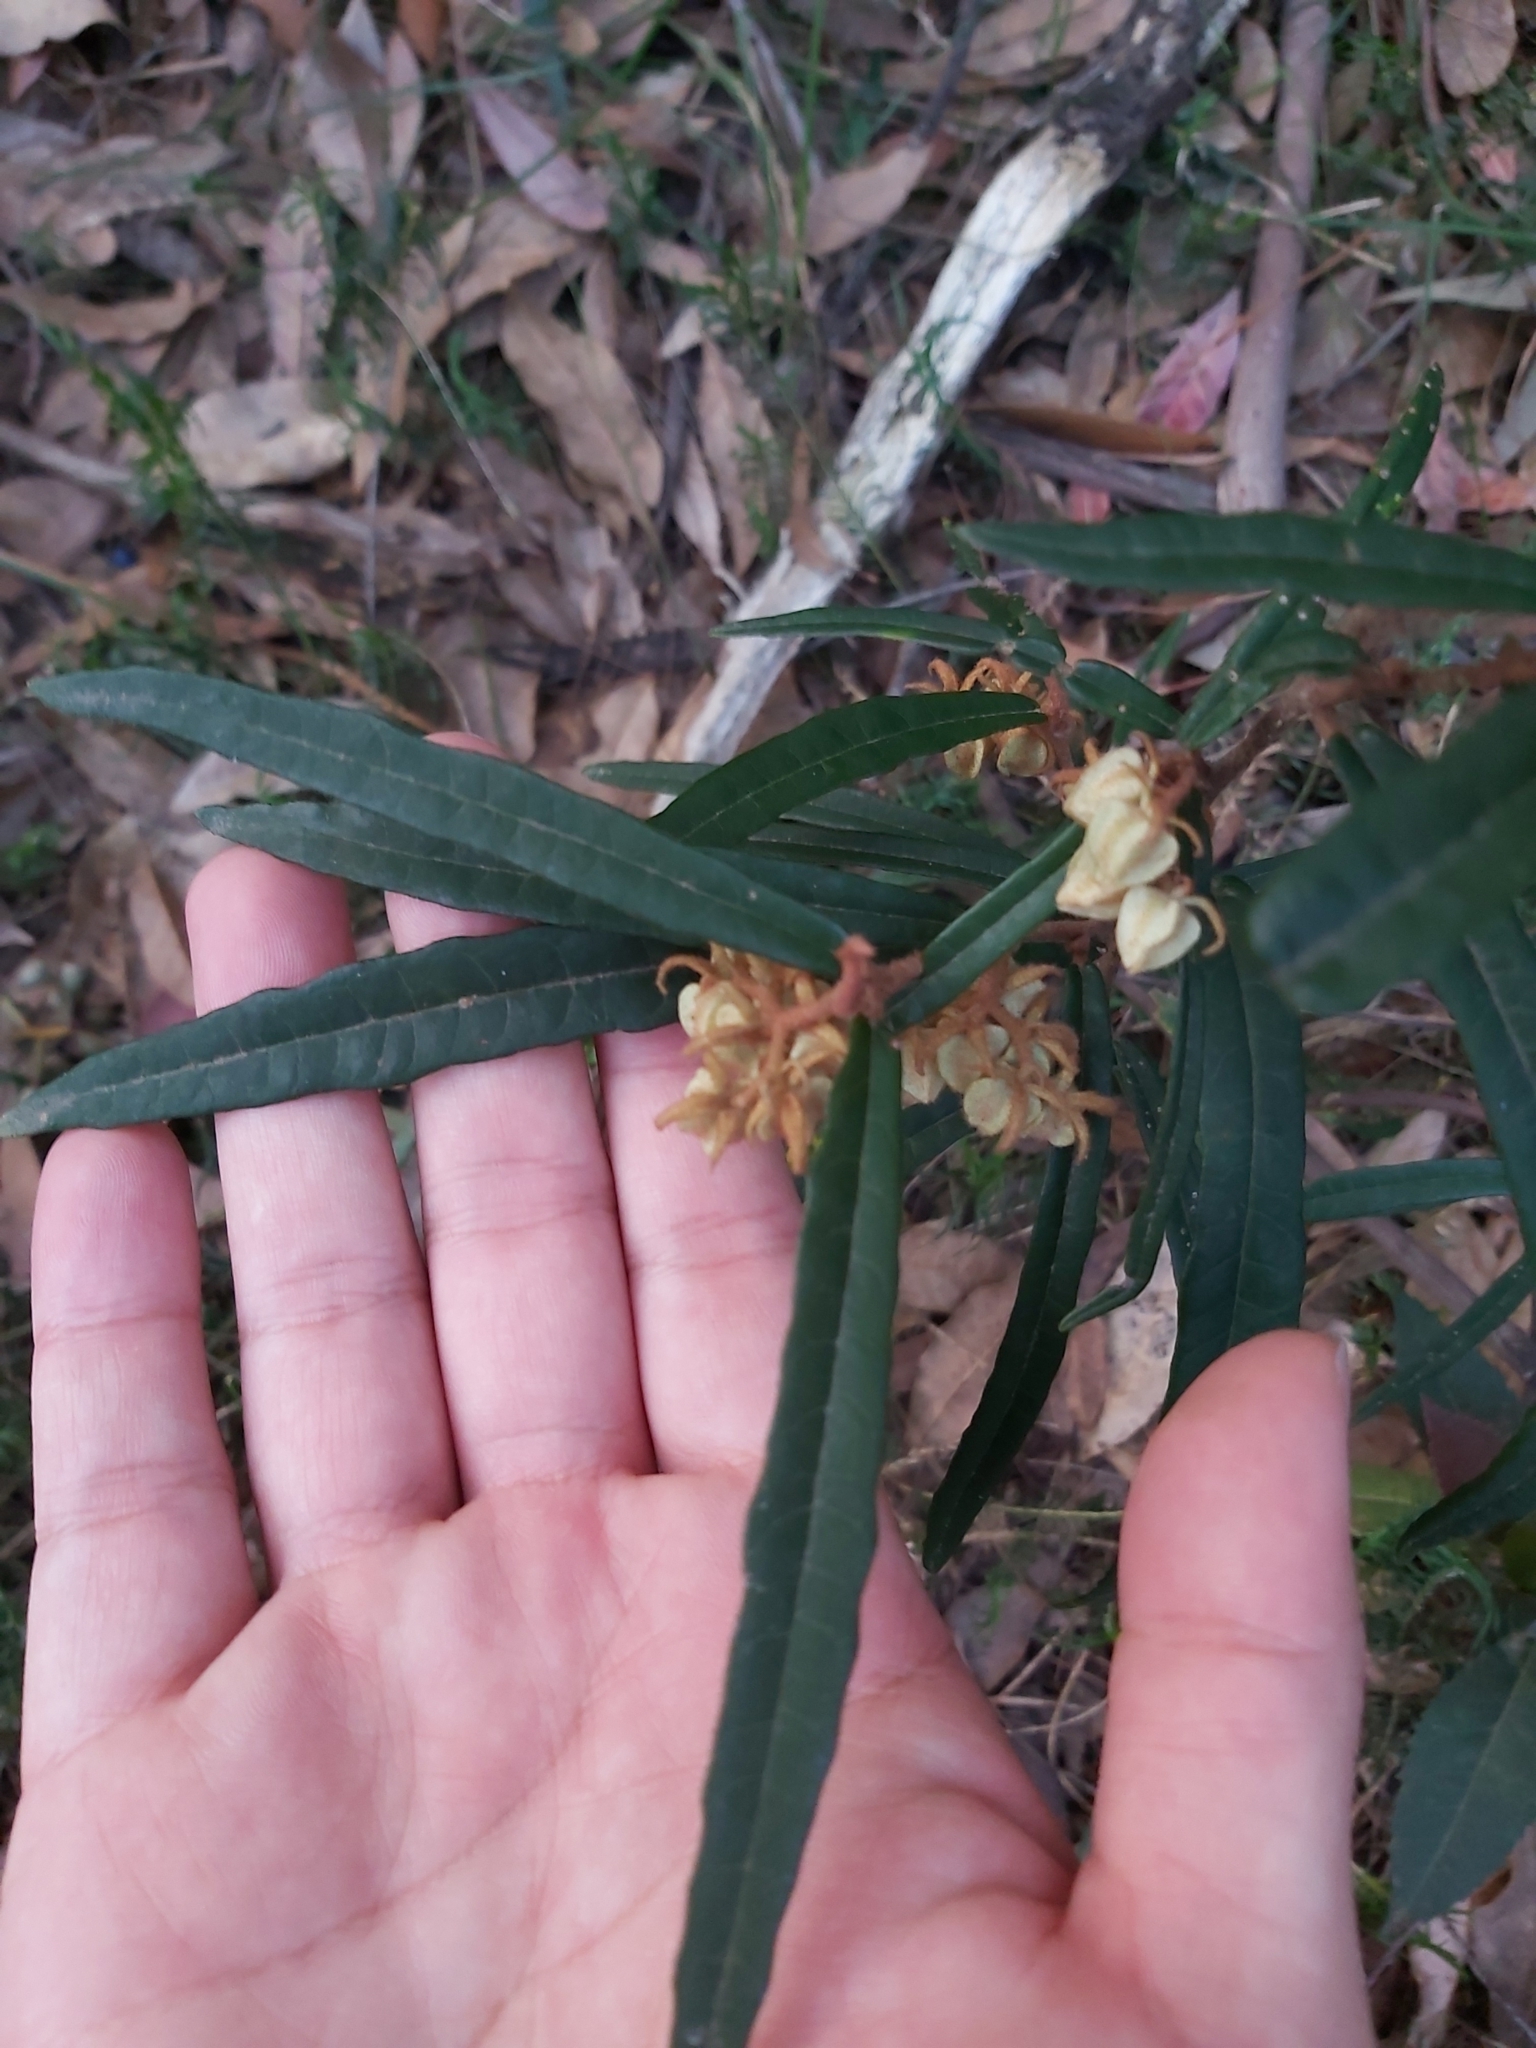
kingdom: Plantae
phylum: Tracheophyta
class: Magnoliopsida
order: Malvales
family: Malvaceae
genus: Lasiopetalum
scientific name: Lasiopetalum ferrugineum
